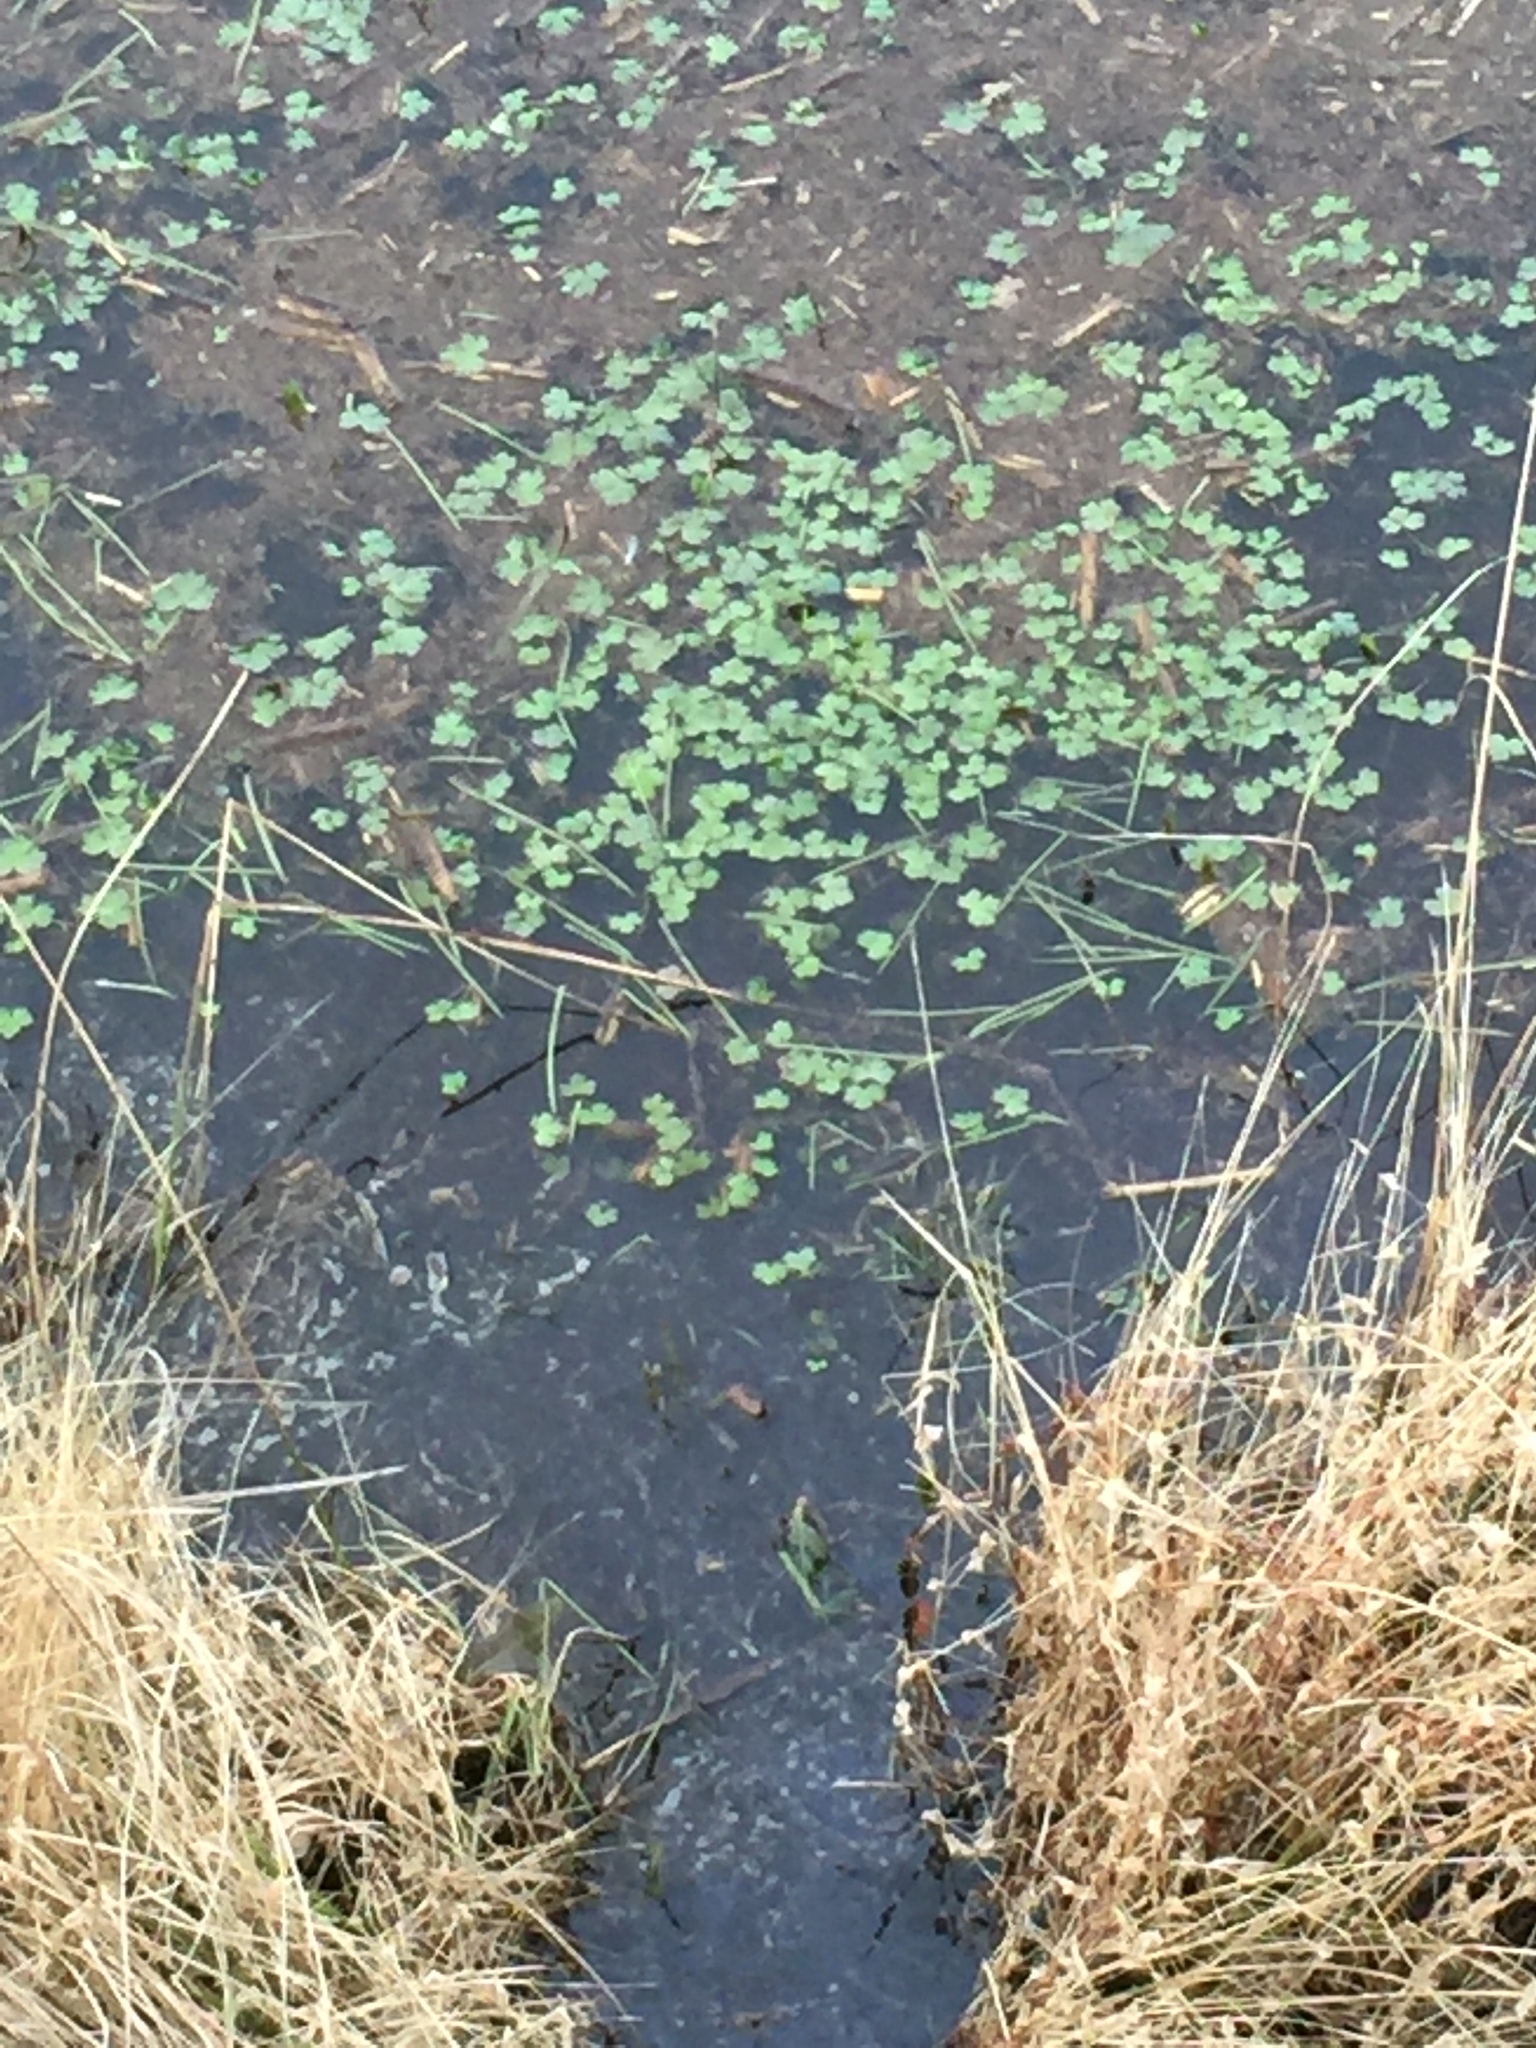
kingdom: Plantae
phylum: Tracheophyta
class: Magnoliopsida
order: Apiales
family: Araliaceae
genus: Hydrocotyle
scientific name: Hydrocotyle ranunculoides
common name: Floating pennywort
